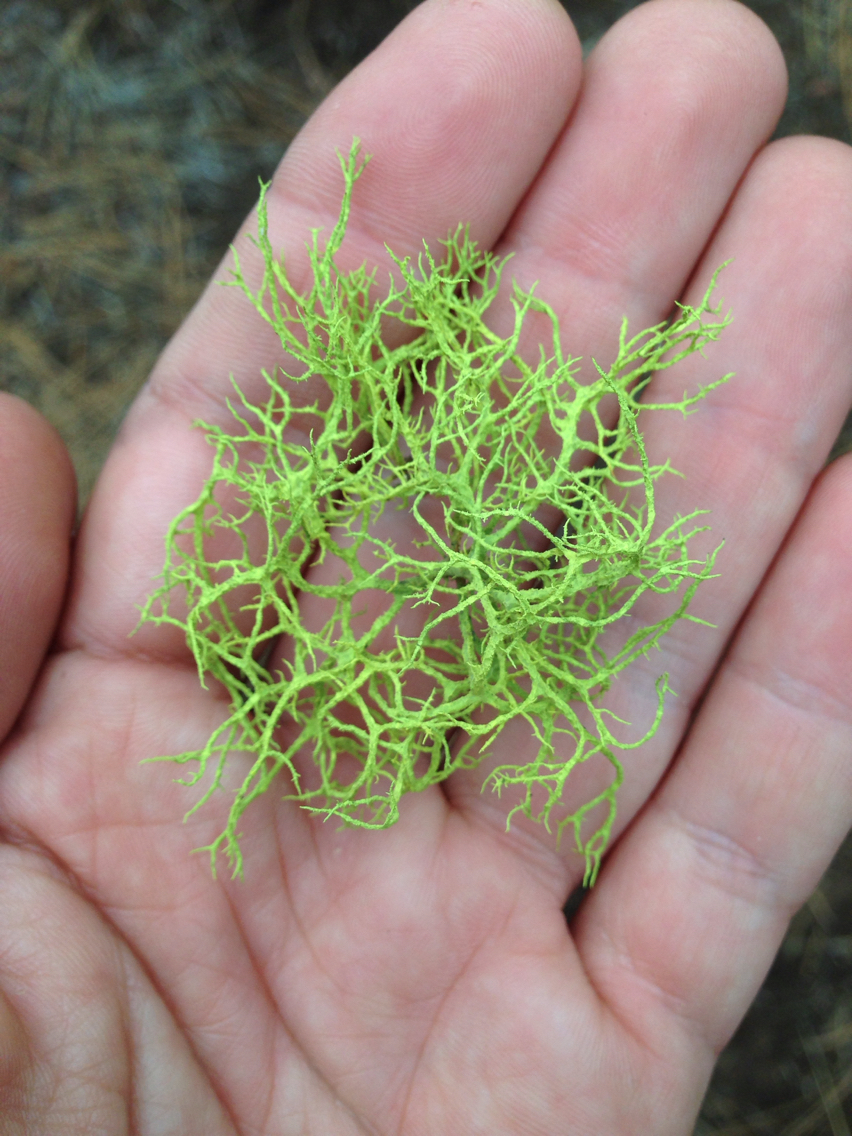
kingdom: Fungi
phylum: Ascomycota
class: Lecanoromycetes
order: Lecanorales
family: Parmeliaceae
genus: Letharia
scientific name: Letharia vulpina
